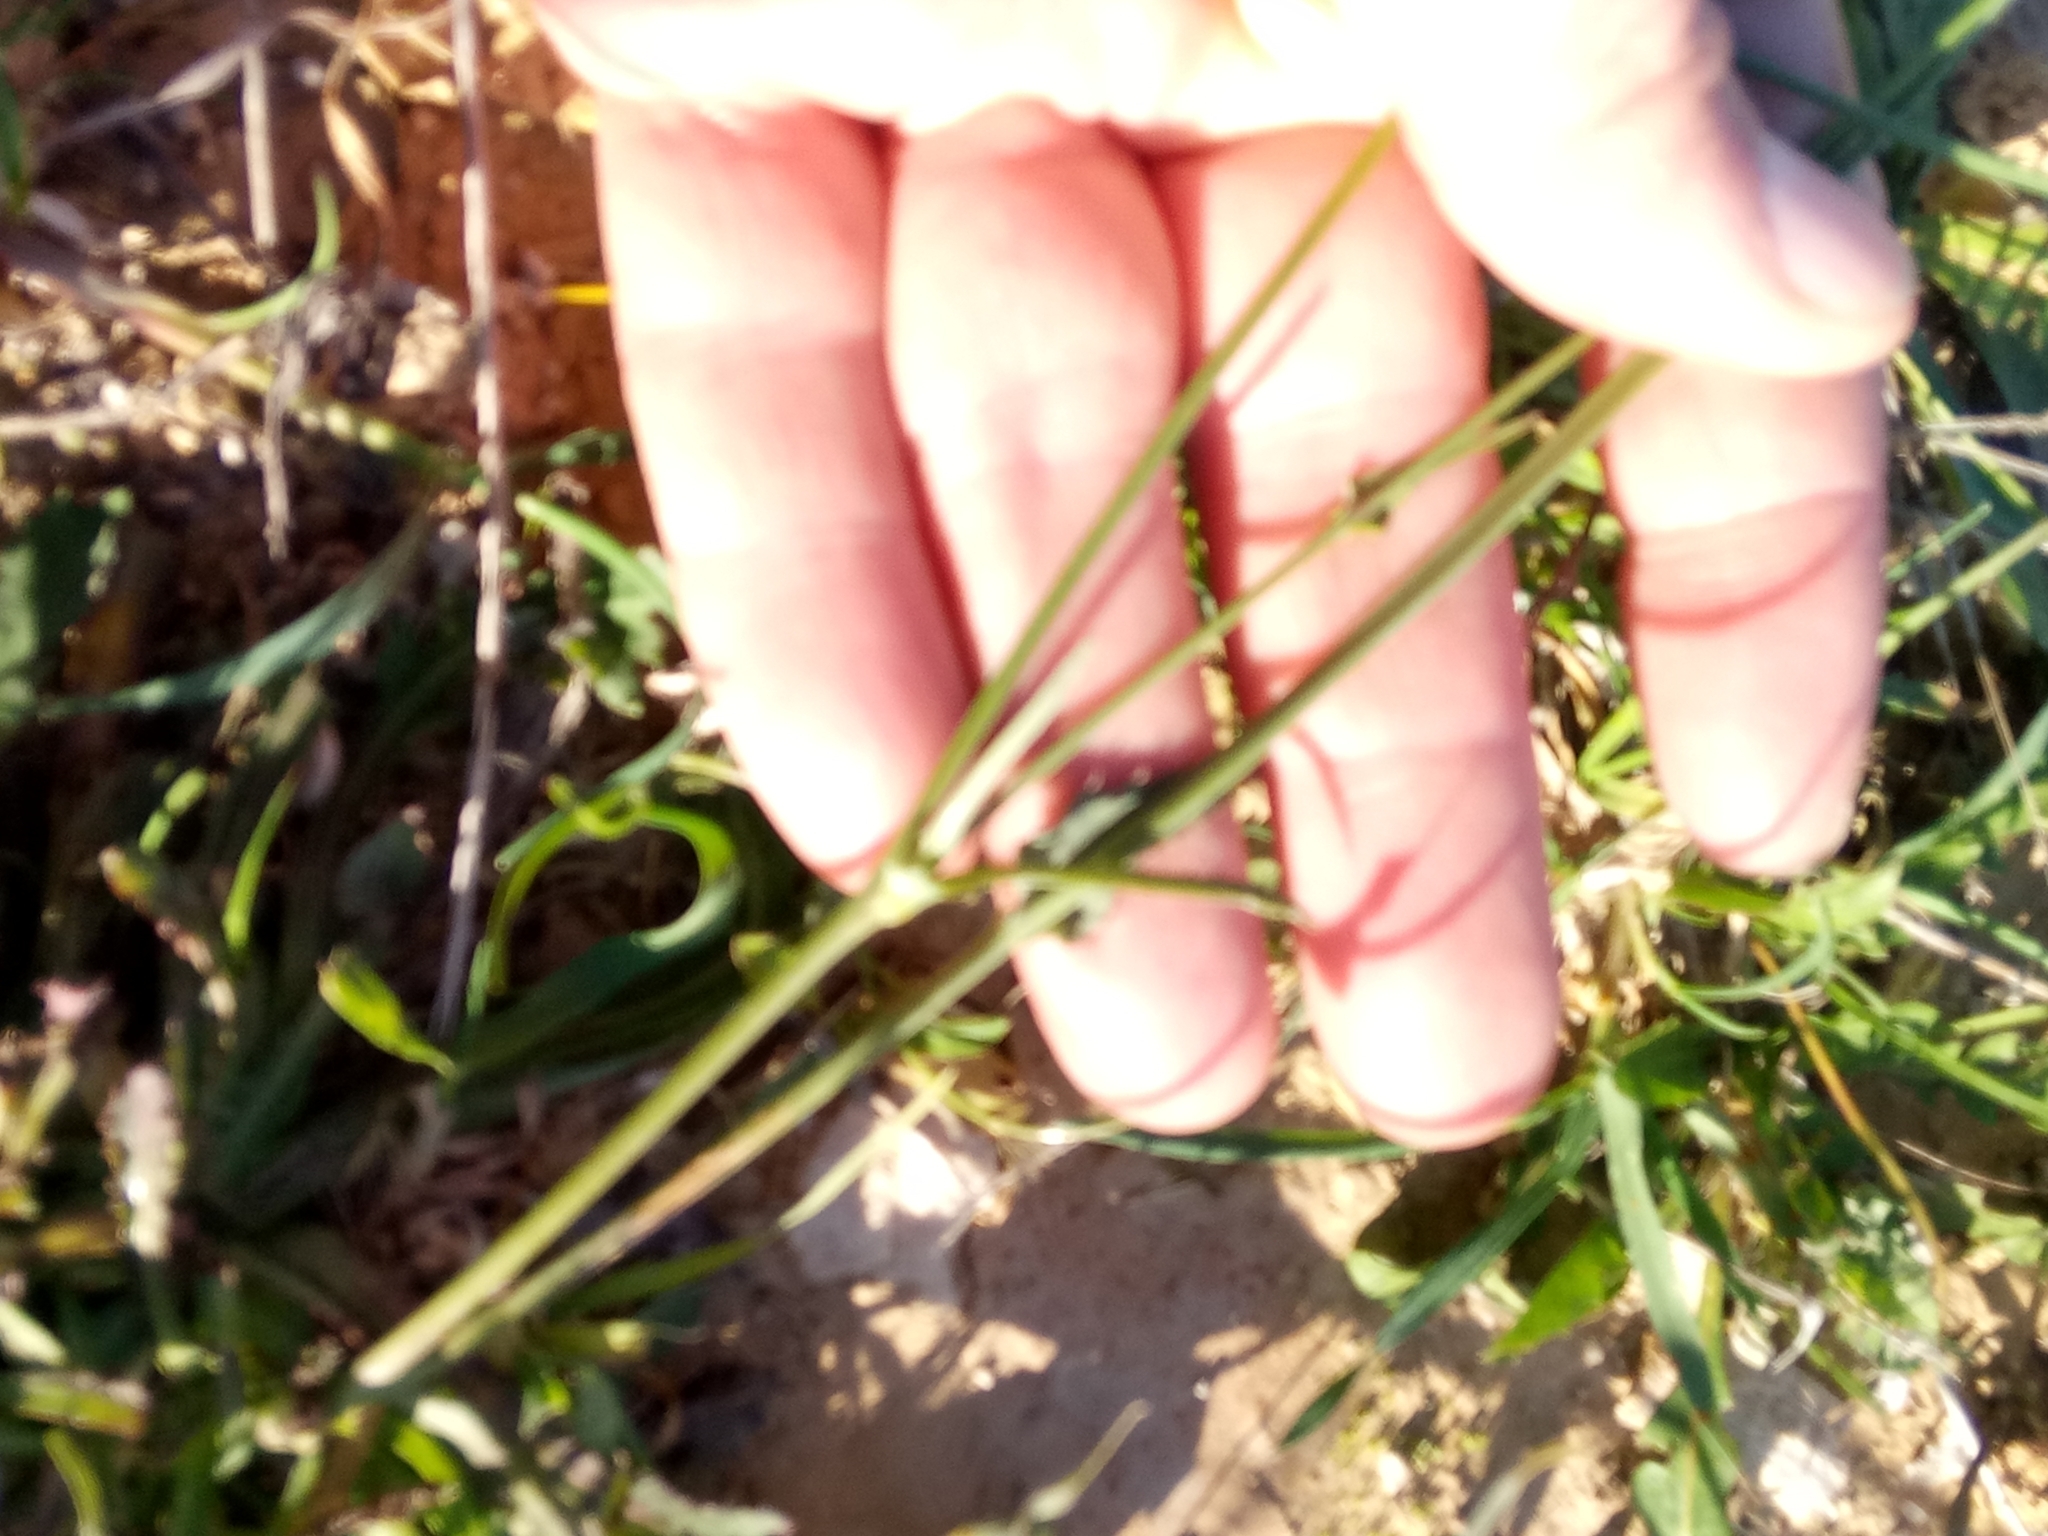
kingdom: Plantae
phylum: Tracheophyta
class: Magnoliopsida
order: Asterales
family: Asteraceae
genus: Reichardia
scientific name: Reichardia picroides
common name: Common brighteyes
